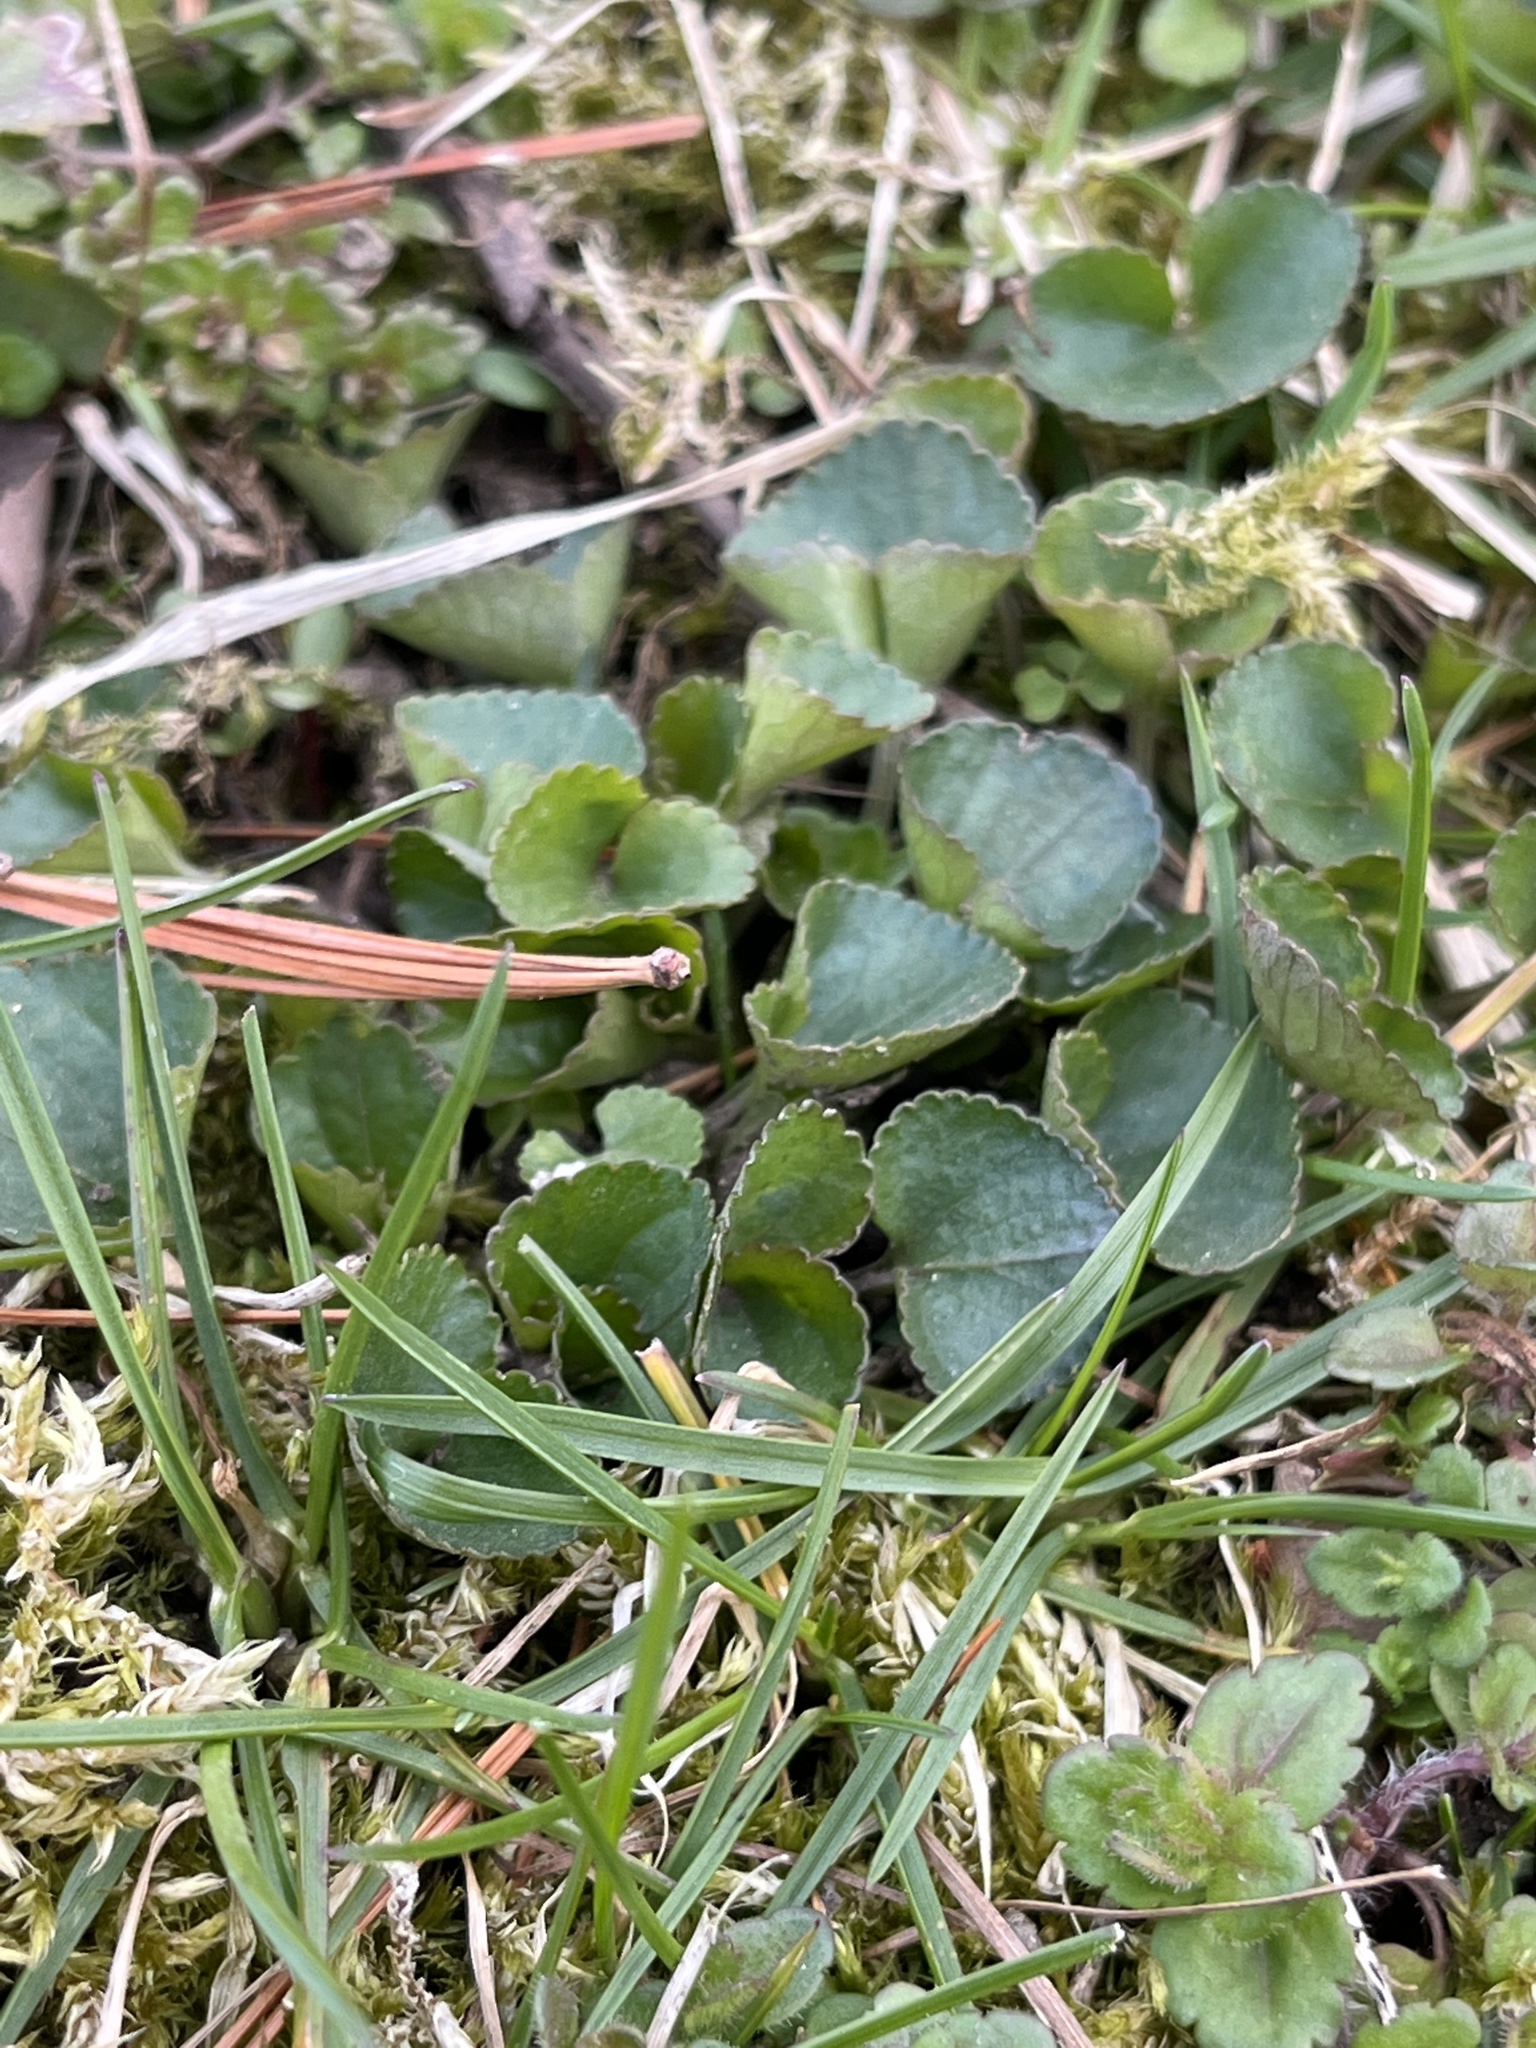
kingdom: Plantae
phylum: Tracheophyta
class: Magnoliopsida
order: Malpighiales
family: Violaceae
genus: Viola
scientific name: Viola
